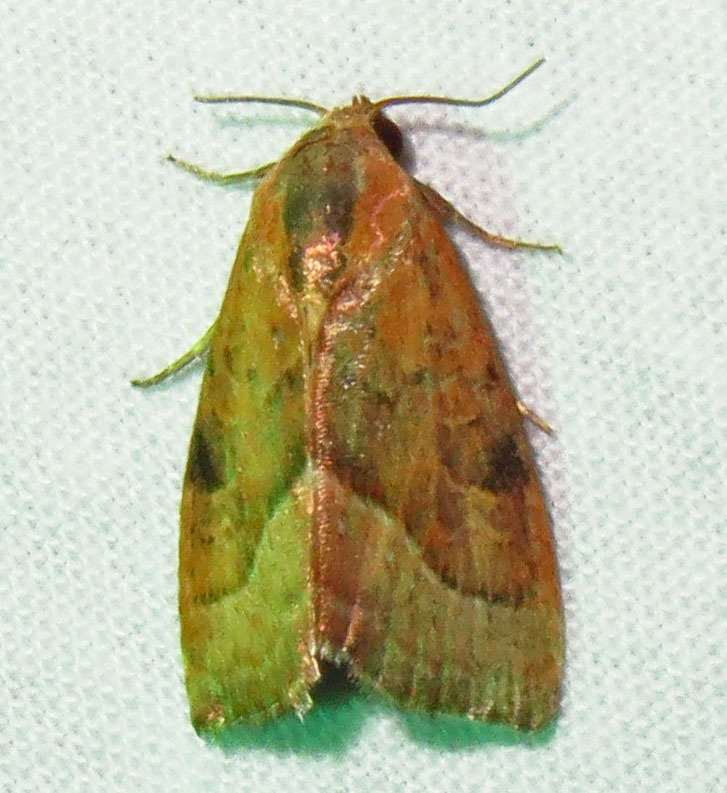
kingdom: Animalia
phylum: Arthropoda
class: Insecta
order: Lepidoptera
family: Noctuidae
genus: Galgula
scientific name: Galgula partita
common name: Wedgeling
